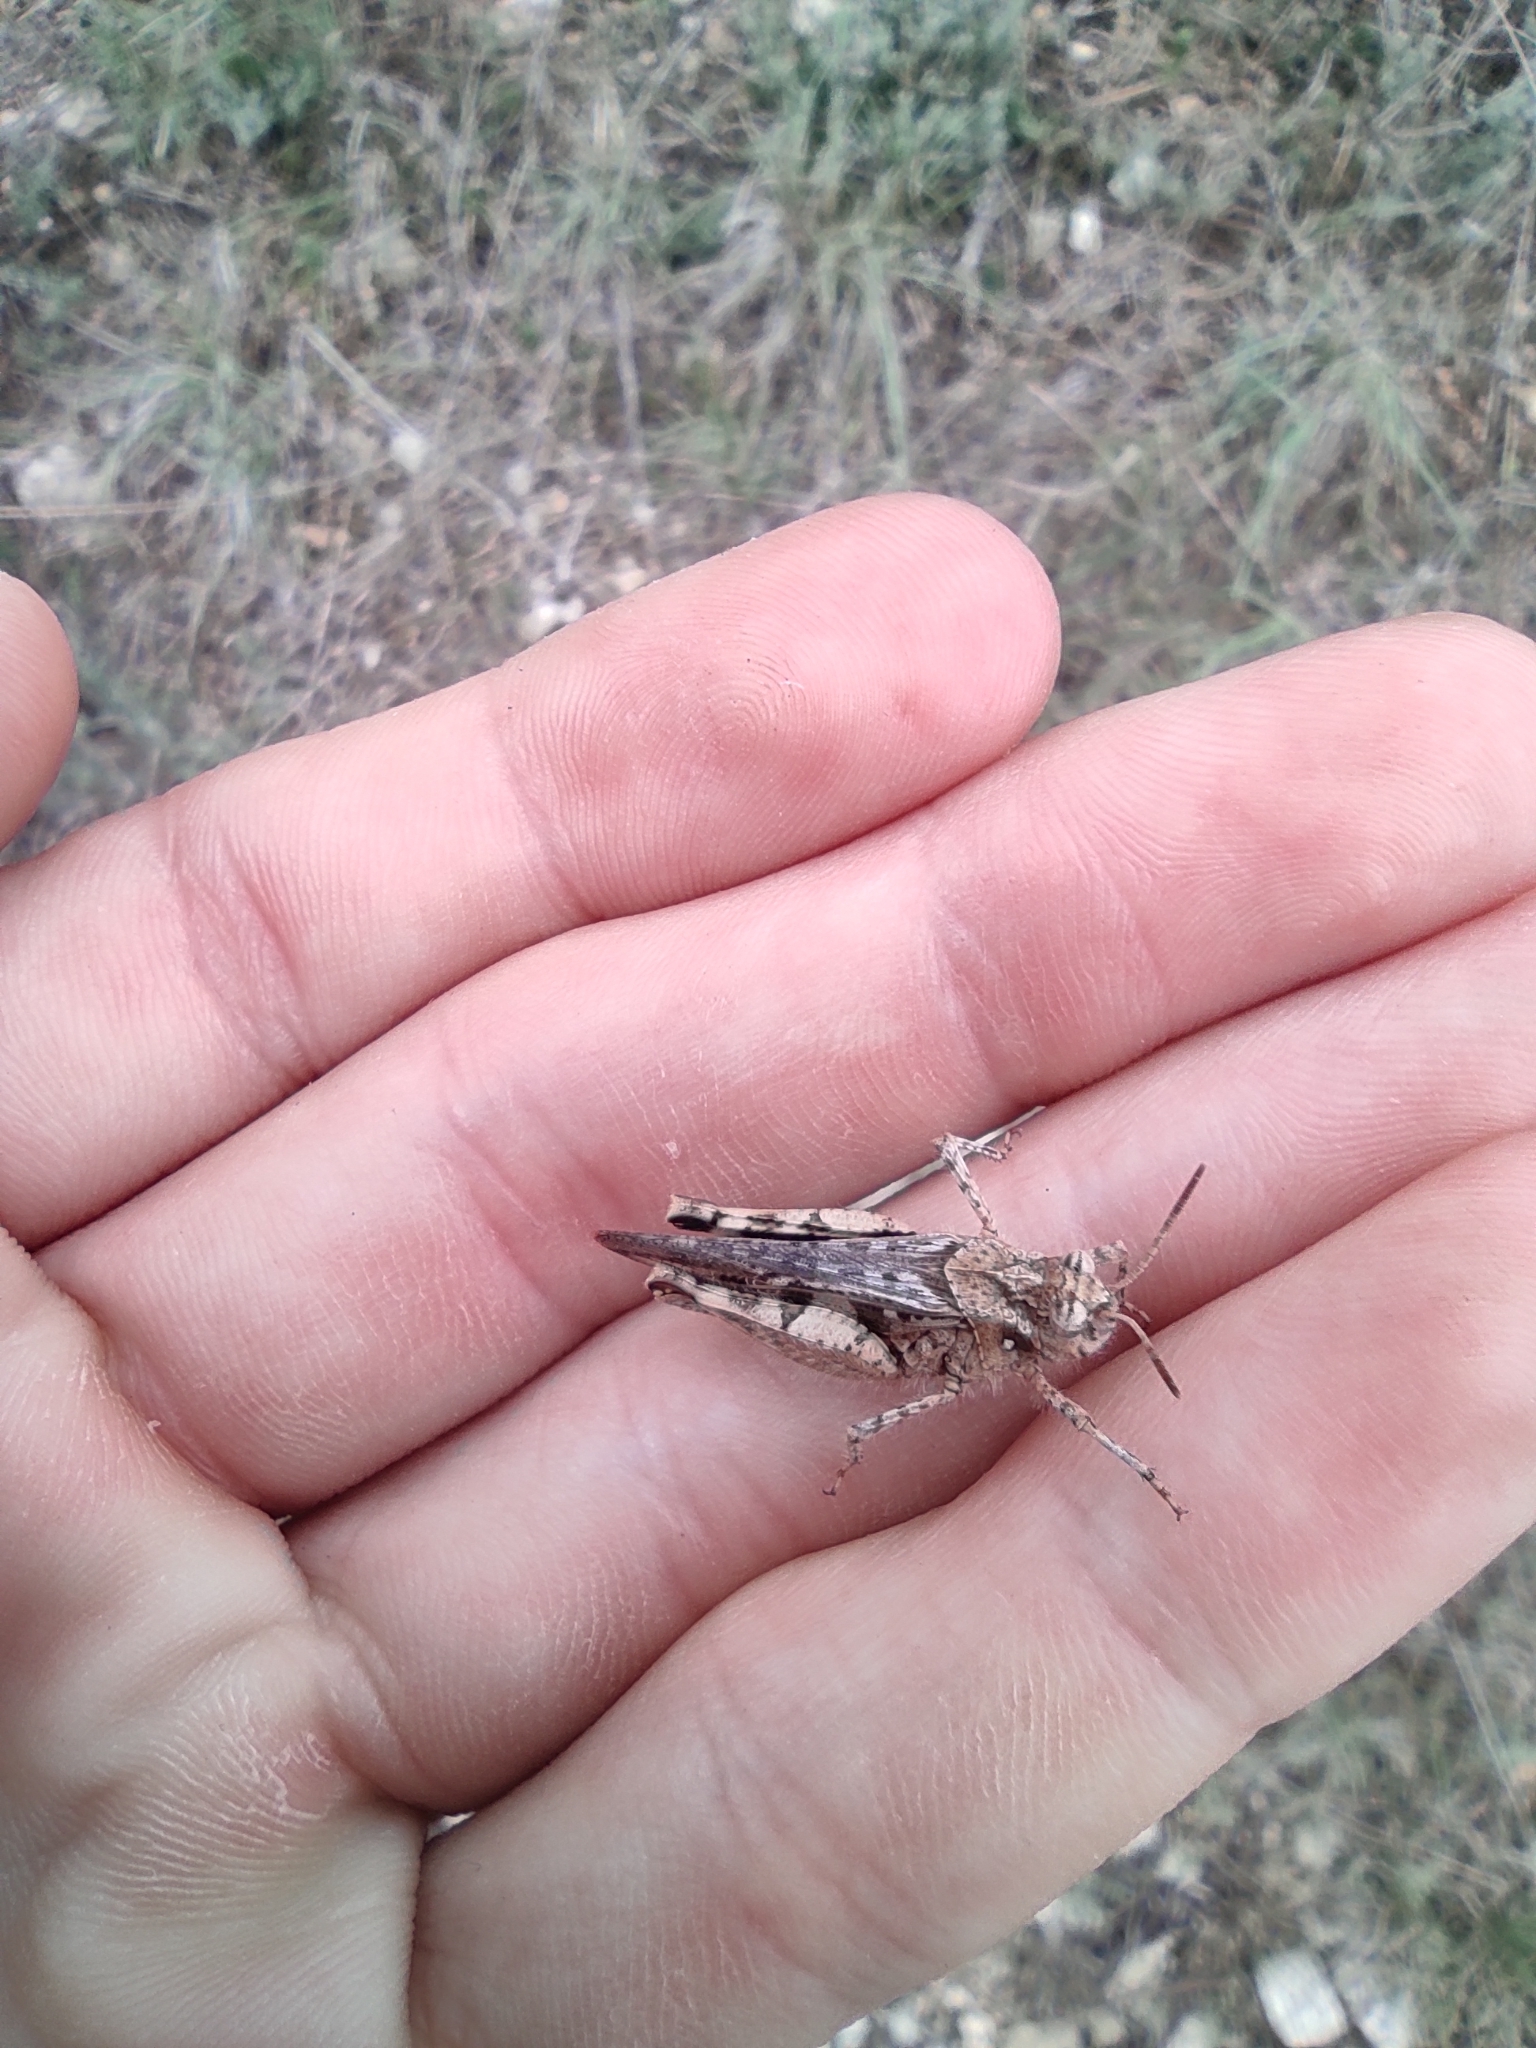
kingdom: Animalia
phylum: Arthropoda
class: Insecta
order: Orthoptera
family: Acrididae
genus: Acrotylus
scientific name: Acrotylus fischeri
